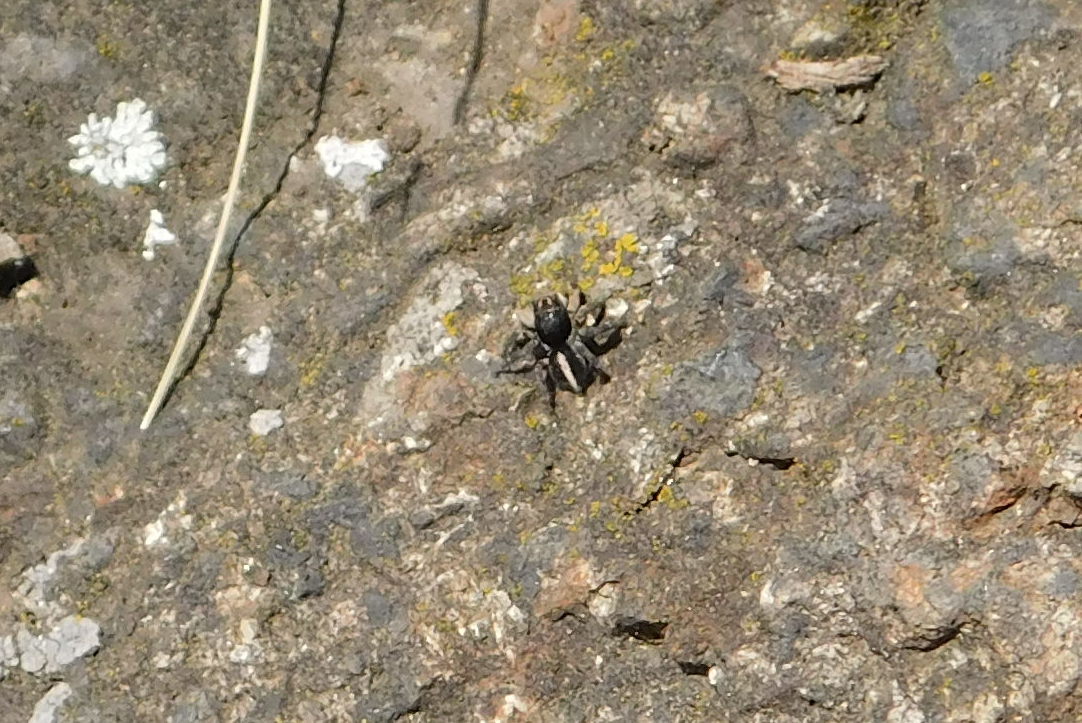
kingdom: Animalia
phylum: Arthropoda
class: Arachnida
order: Araneae
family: Salticidae
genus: Aelurillus
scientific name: Aelurillus v-insignitus
